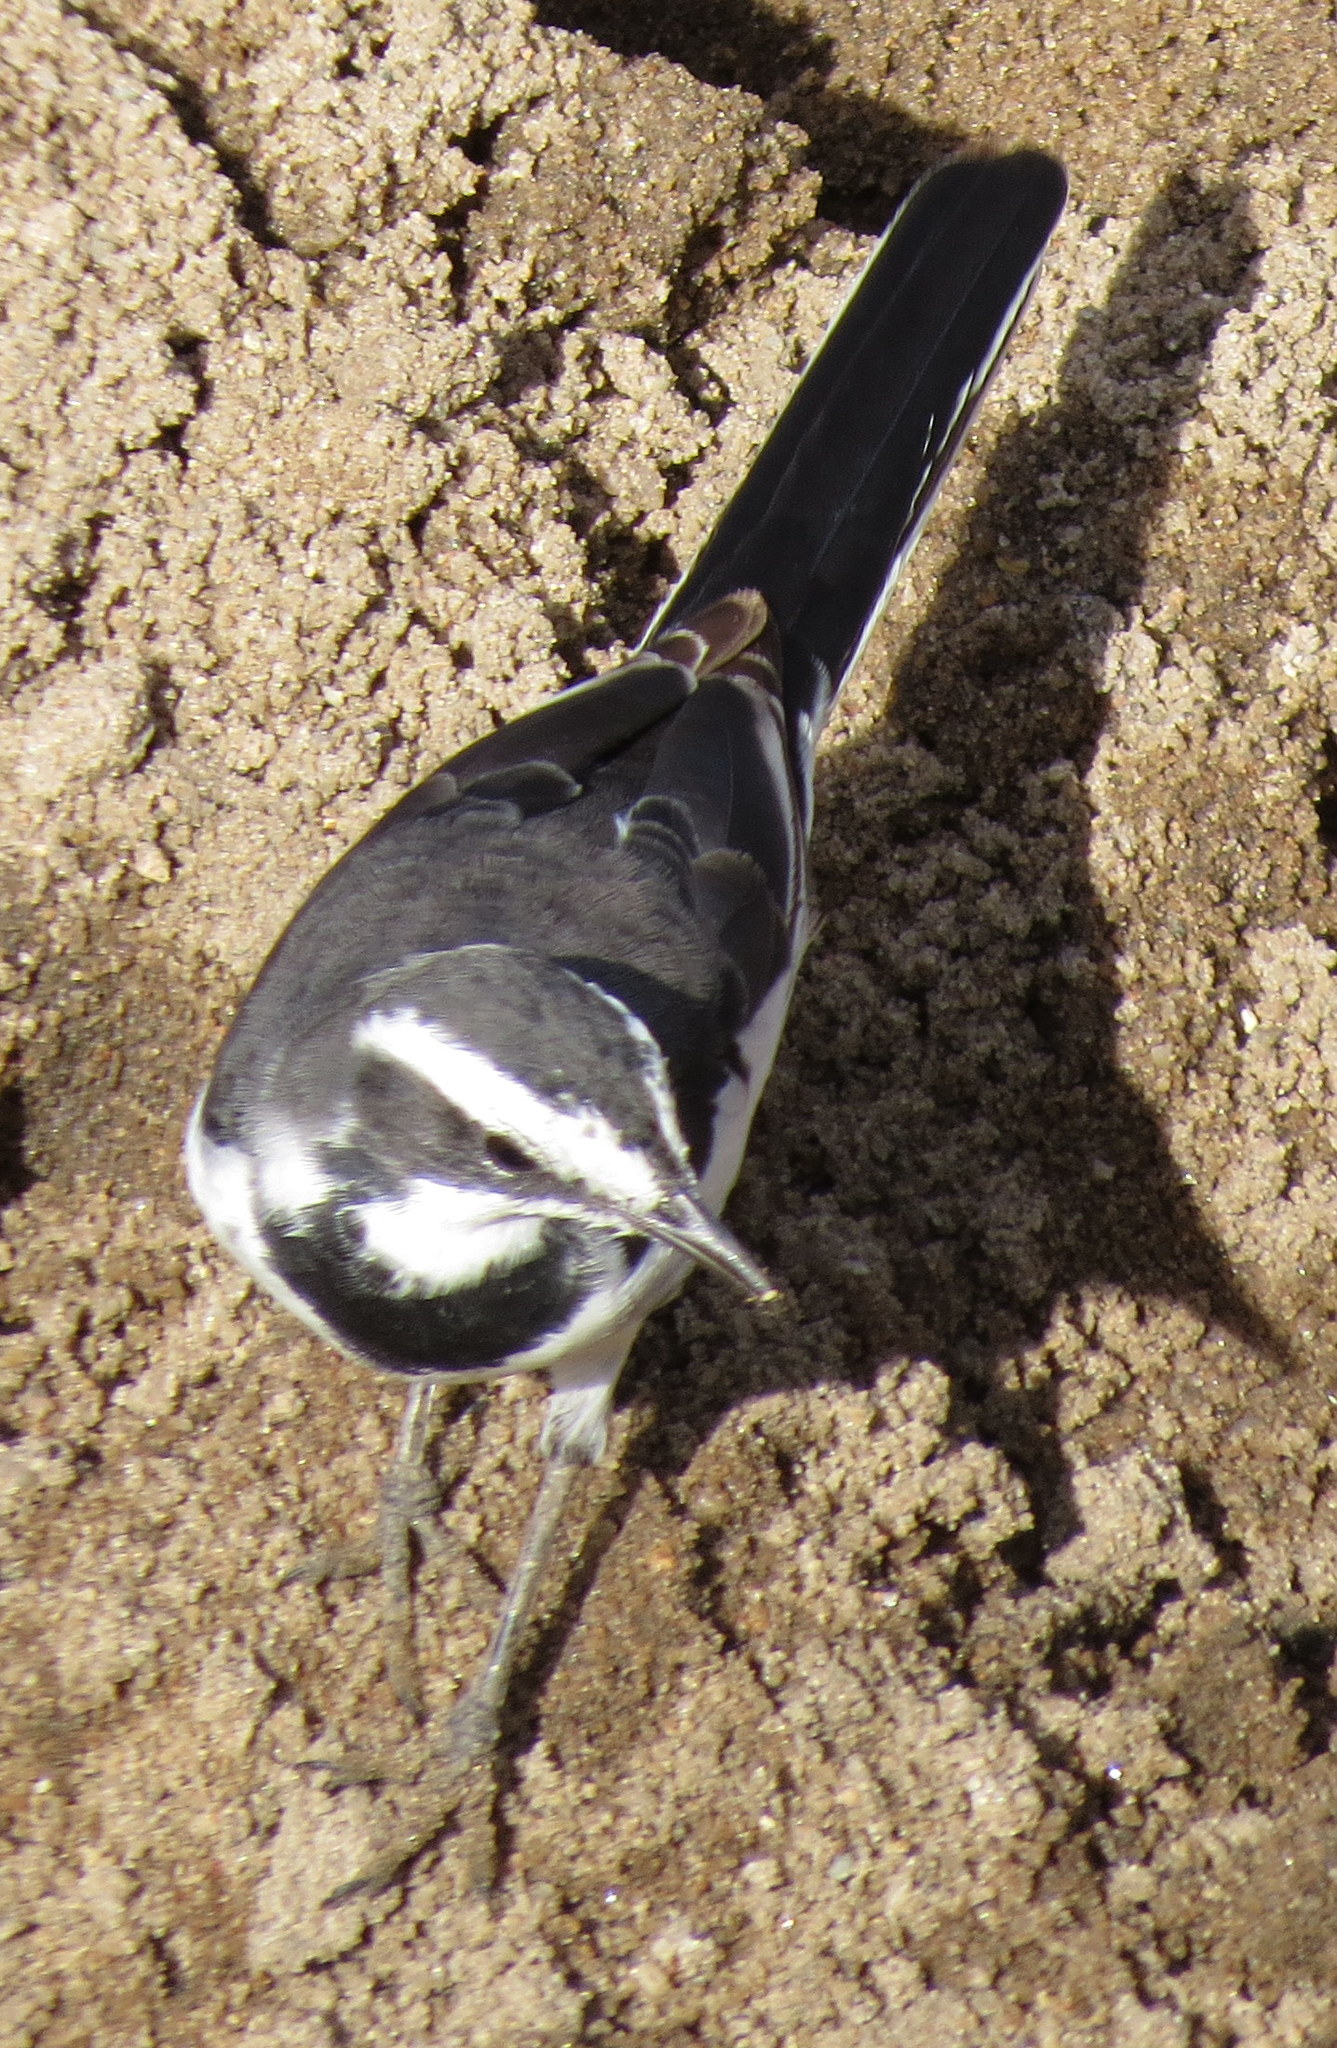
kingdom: Animalia
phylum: Chordata
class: Aves
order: Passeriformes
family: Motacillidae
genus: Motacilla
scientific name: Motacilla aguimp
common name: African pied wagtail
